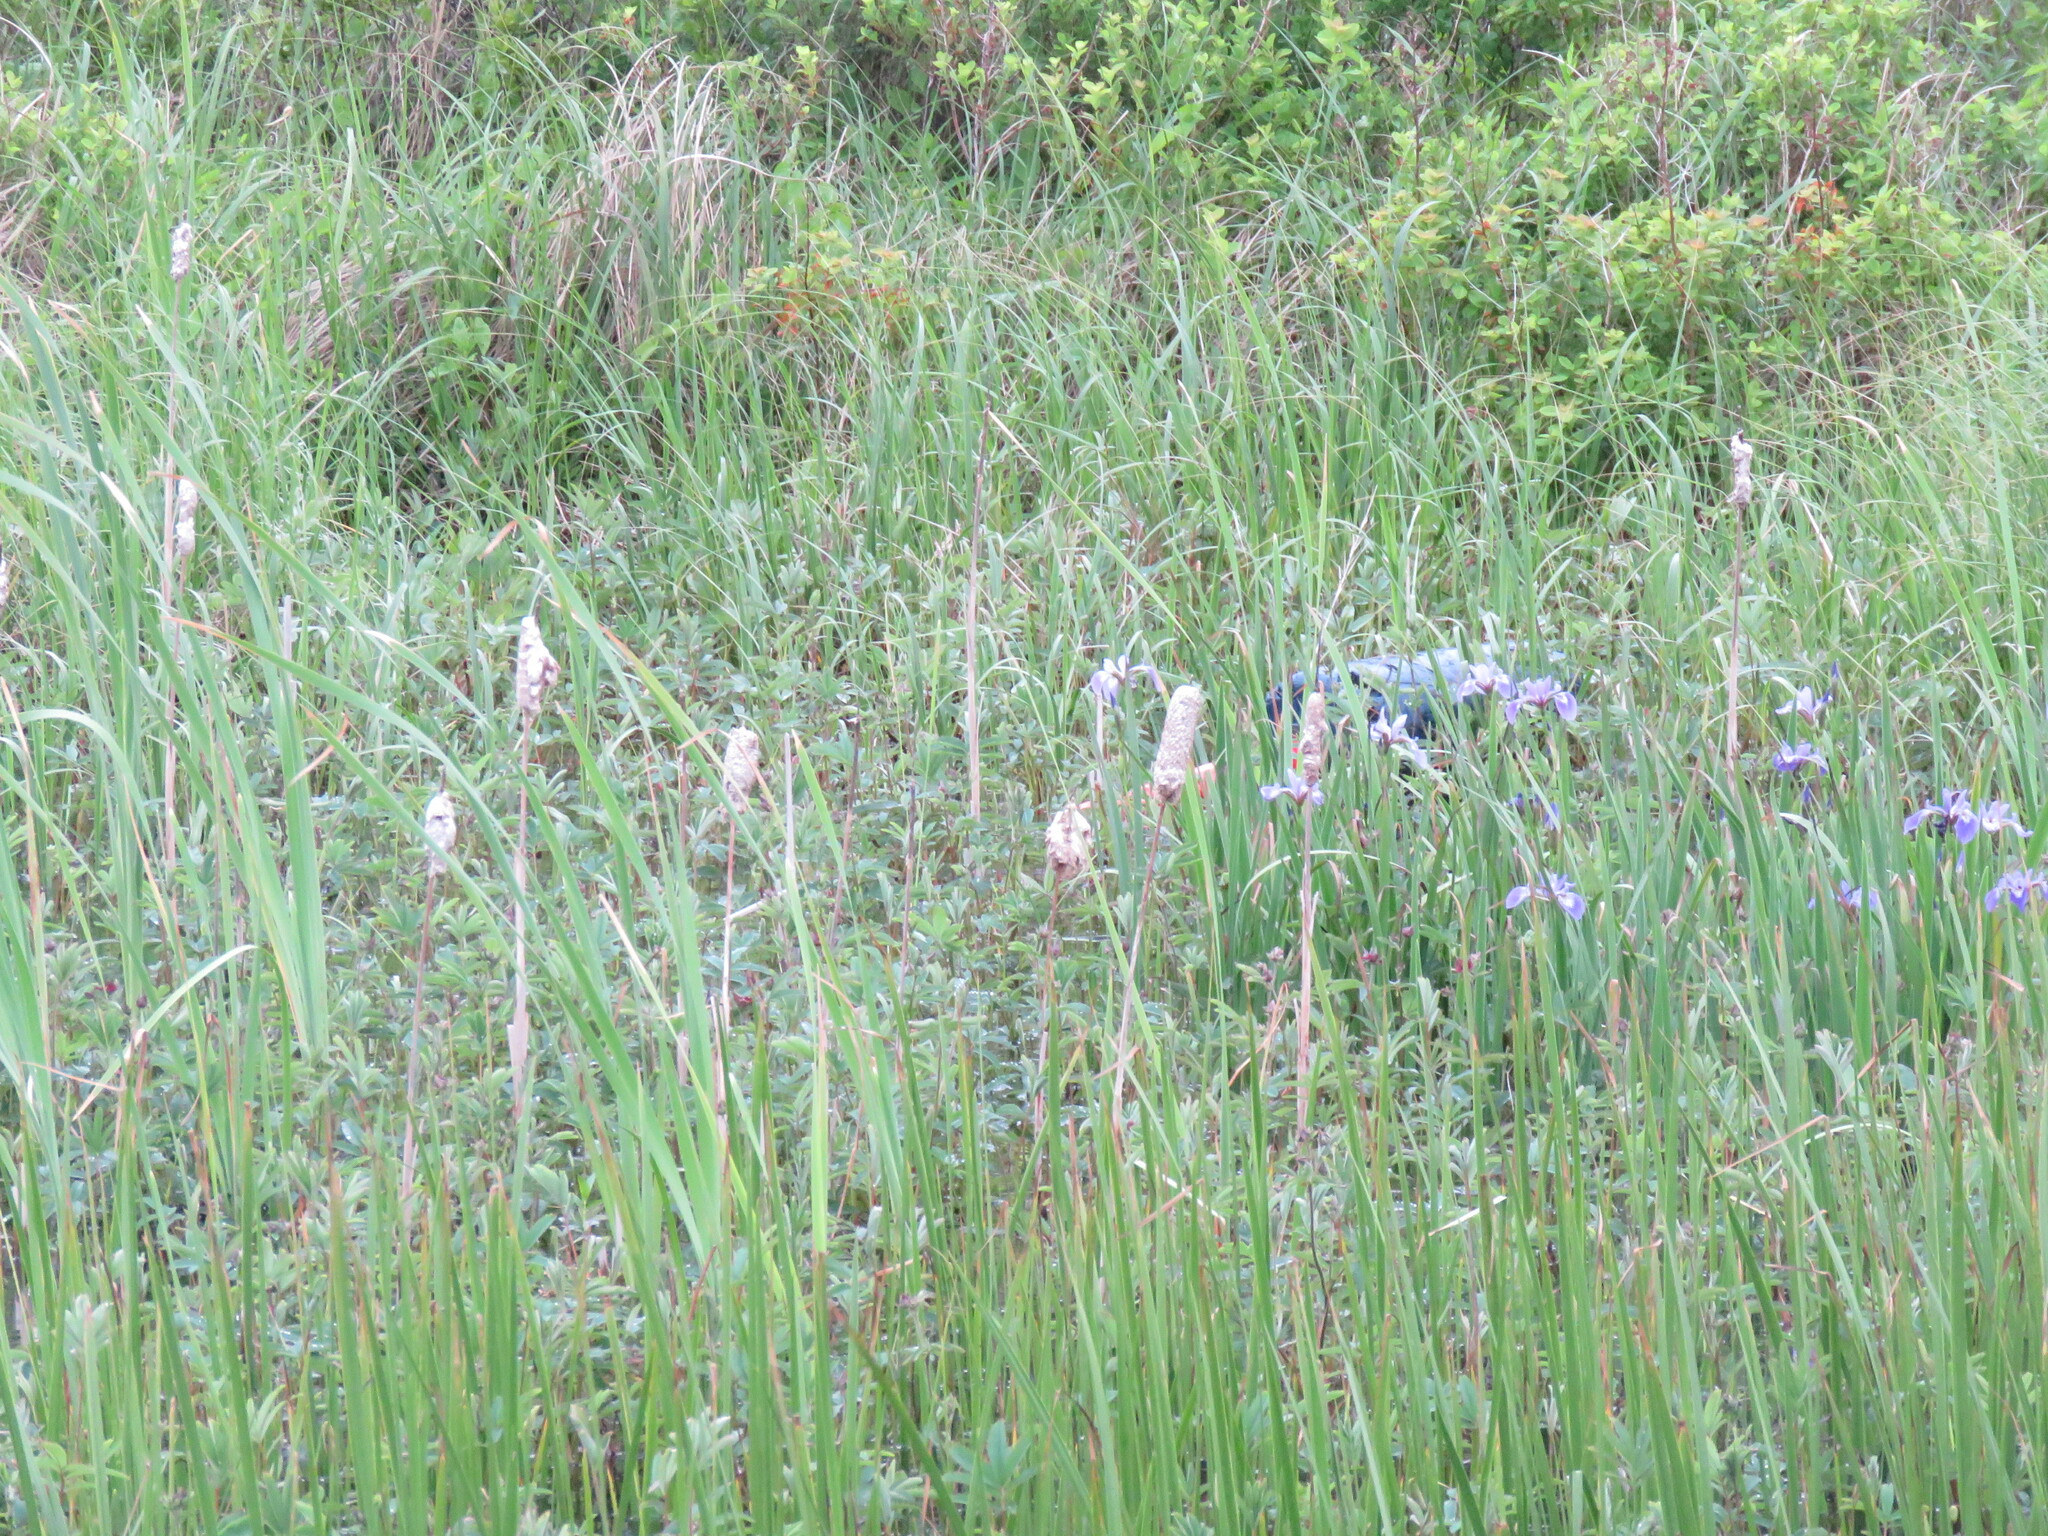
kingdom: Plantae
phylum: Tracheophyta
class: Liliopsida
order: Poales
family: Typhaceae
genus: Typha
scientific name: Typha latifolia
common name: Broadleaf cattail
